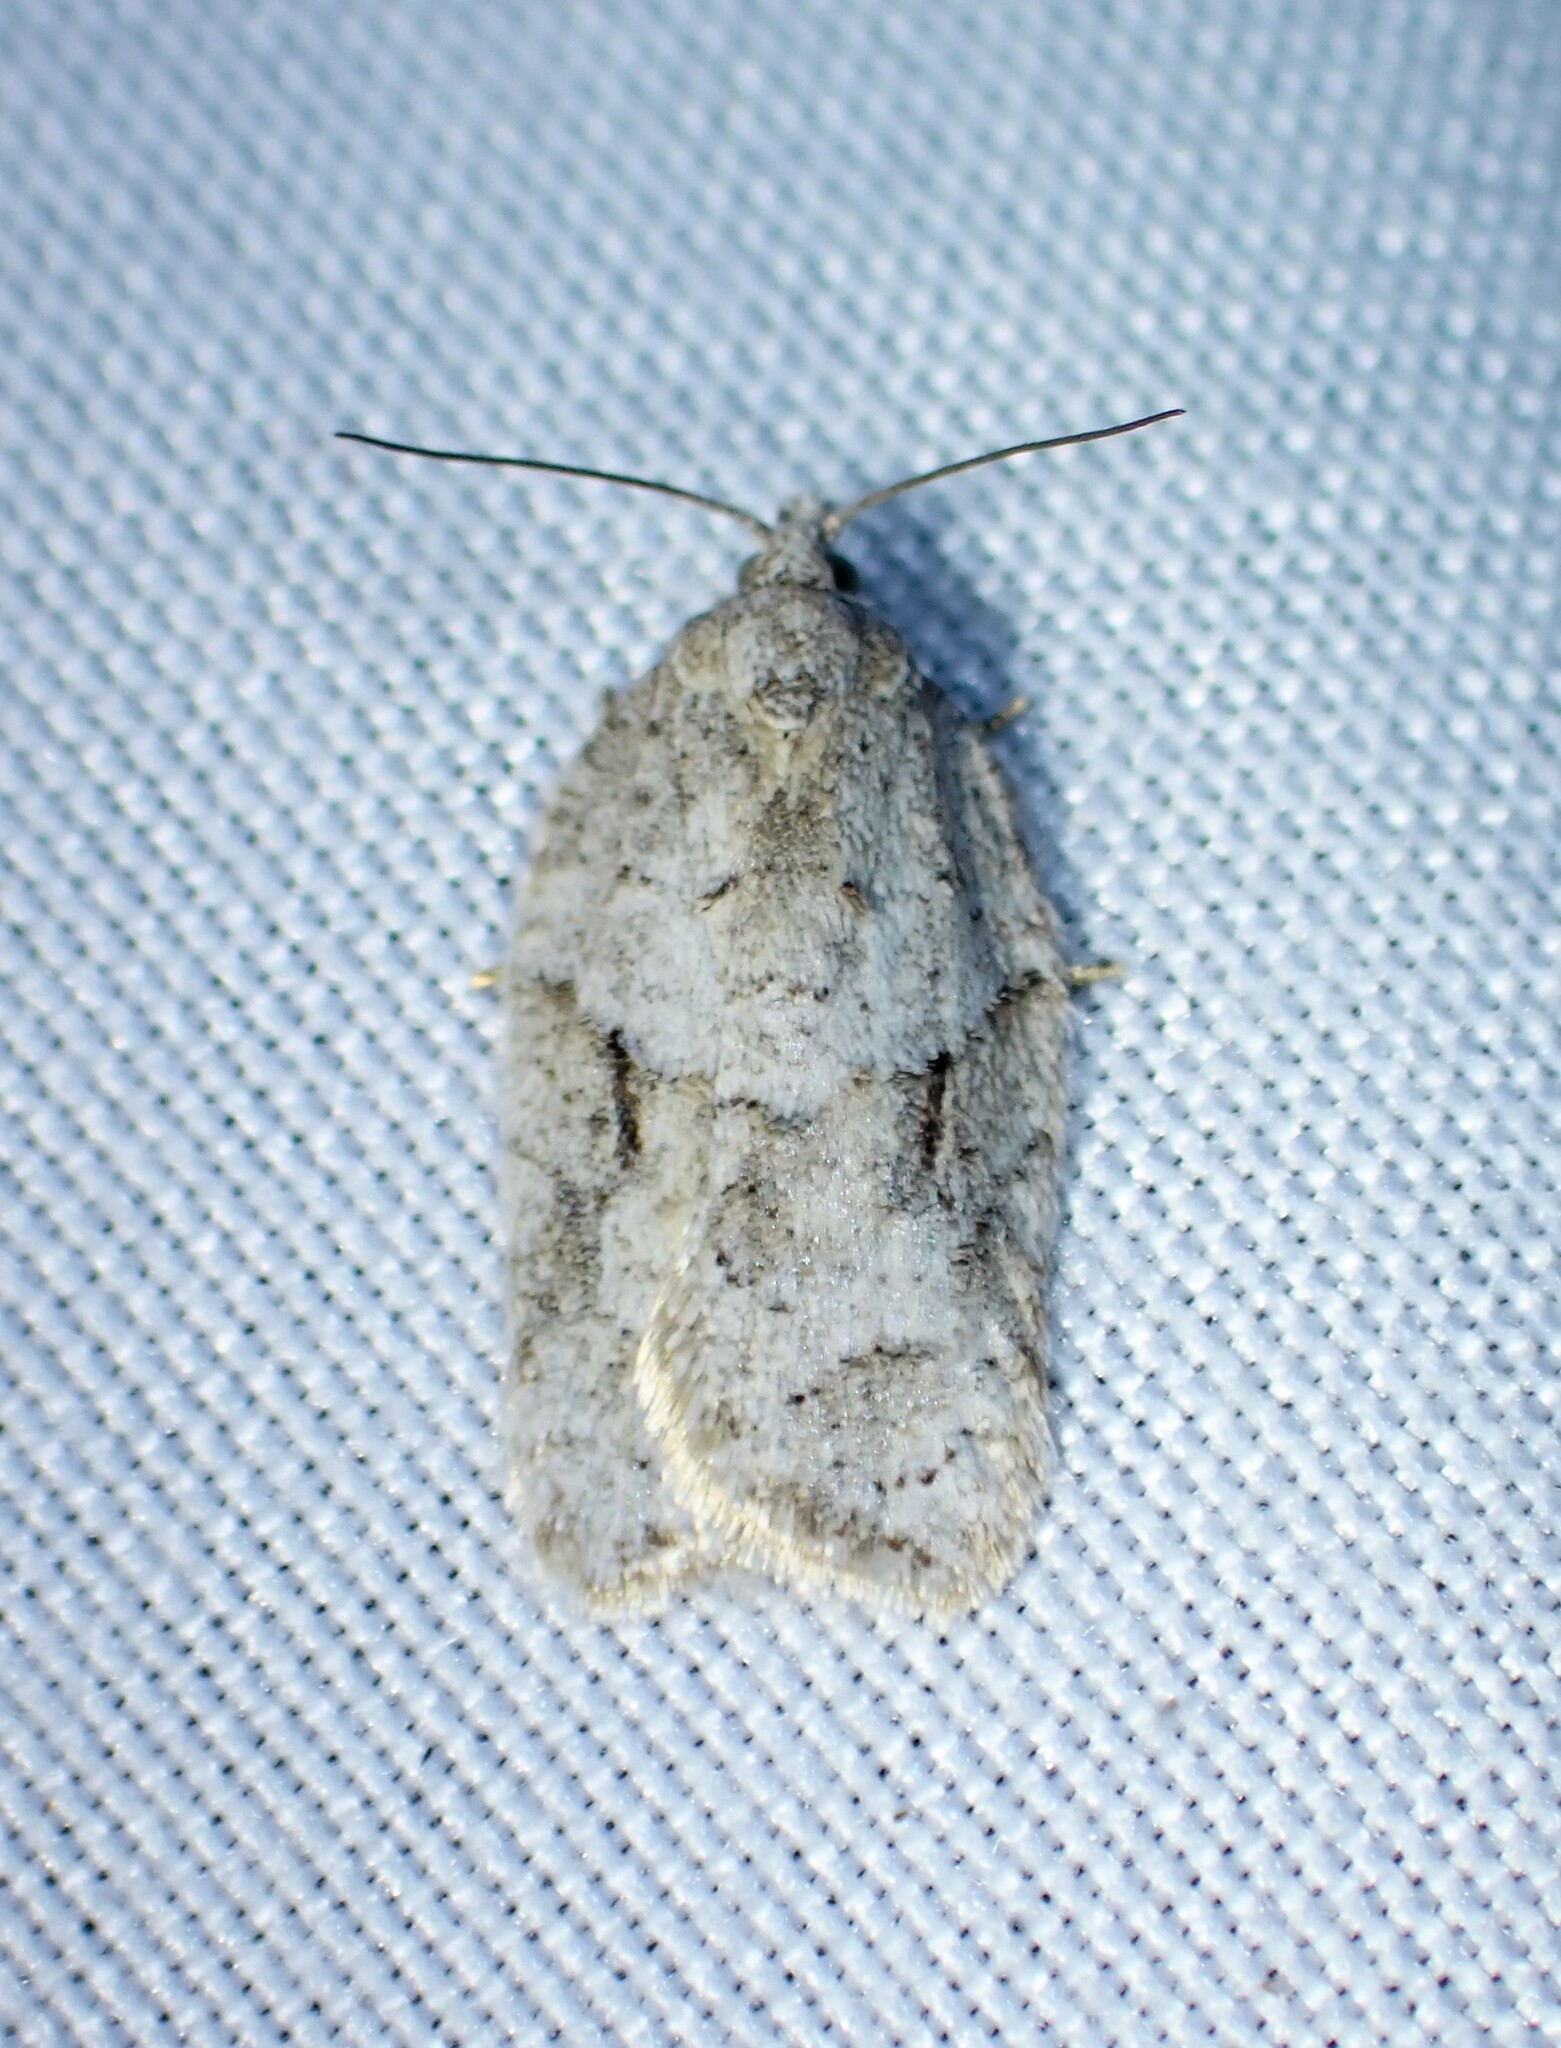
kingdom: Animalia
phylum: Arthropoda
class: Insecta
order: Lepidoptera
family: Tortricidae
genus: Acleris
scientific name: Acleris placidana
